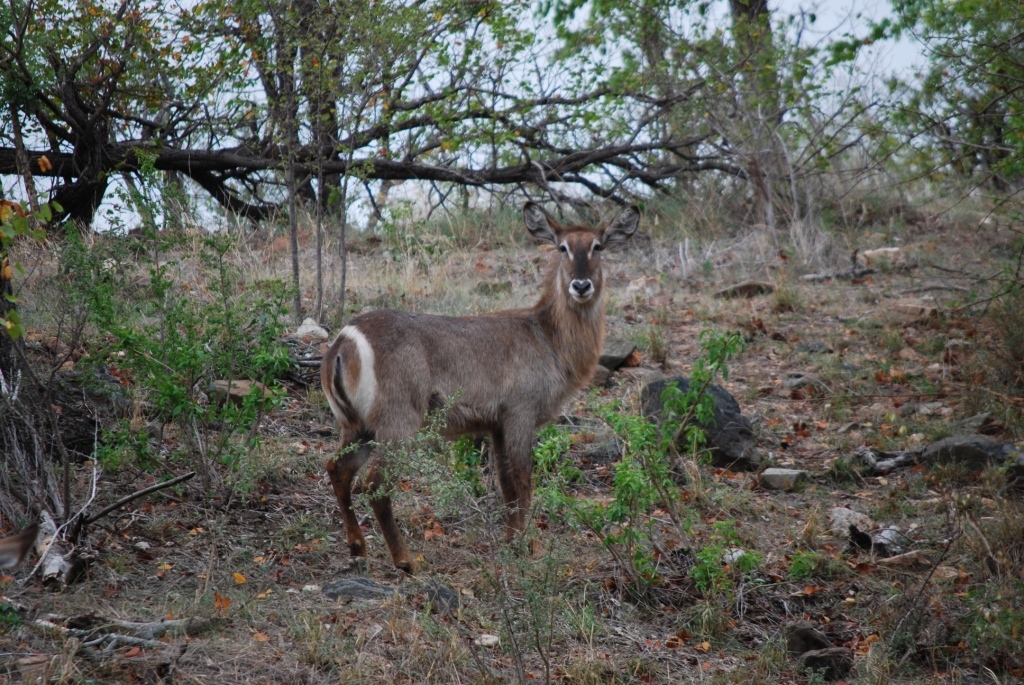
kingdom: Animalia
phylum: Chordata
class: Mammalia
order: Artiodactyla
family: Bovidae
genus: Kobus
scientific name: Kobus ellipsiprymnus
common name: Waterbuck
